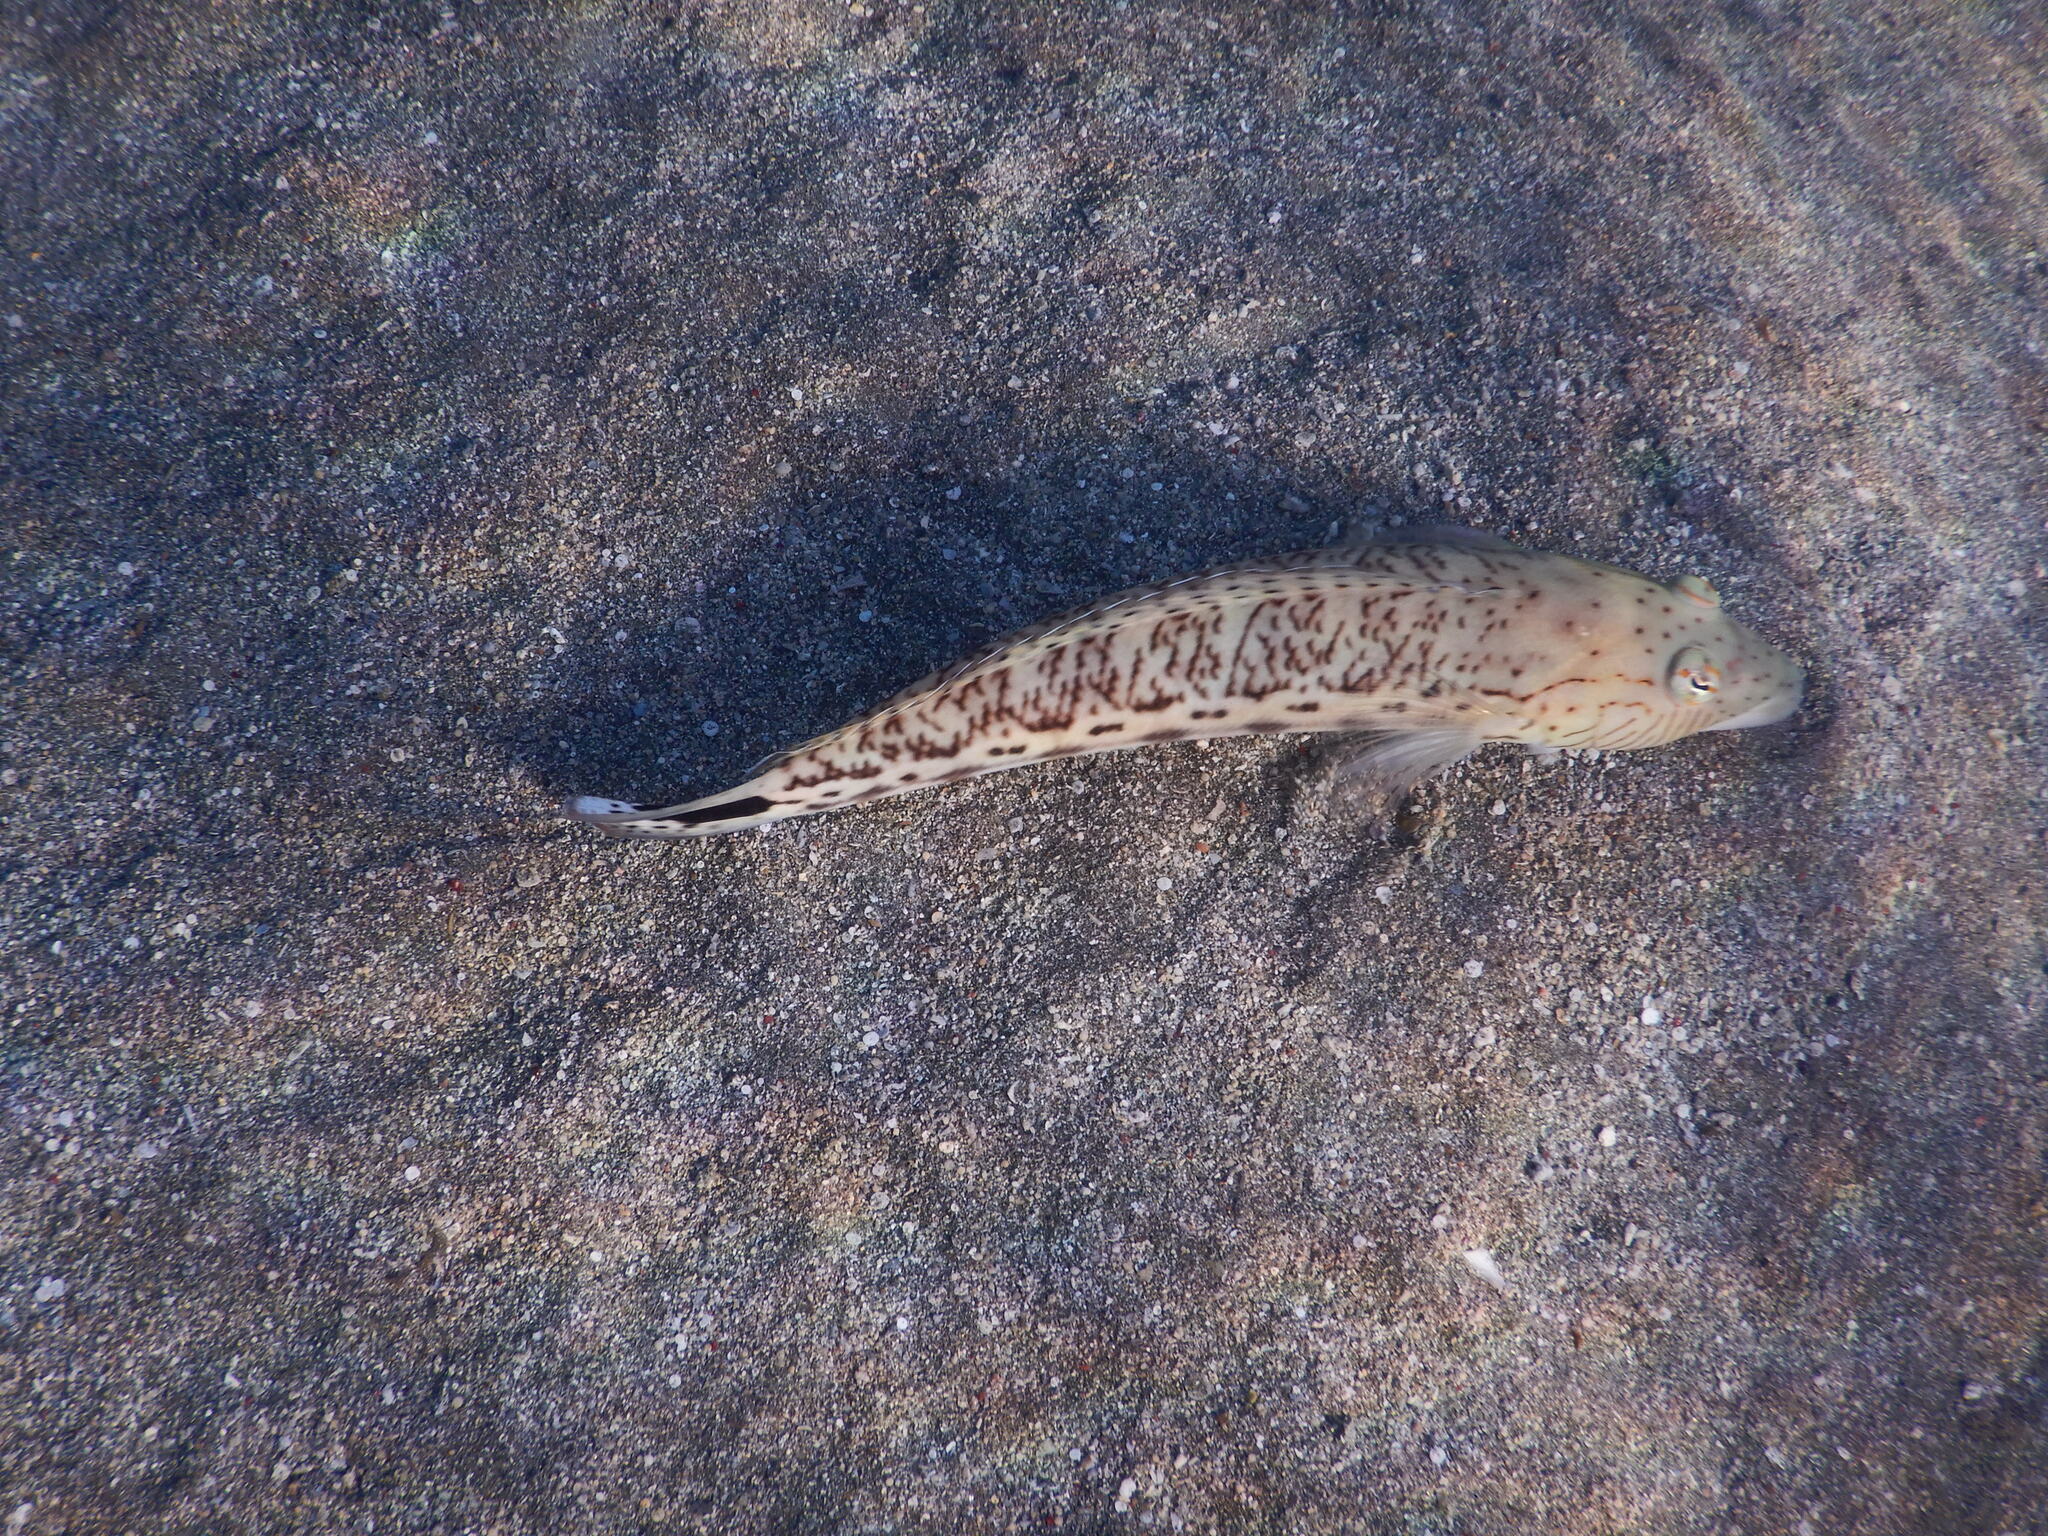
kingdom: Animalia
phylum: Chordata
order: Perciformes
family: Pinguipedidae
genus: Parapercis
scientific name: Parapercis hexophtalma
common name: Speckled sandperch
